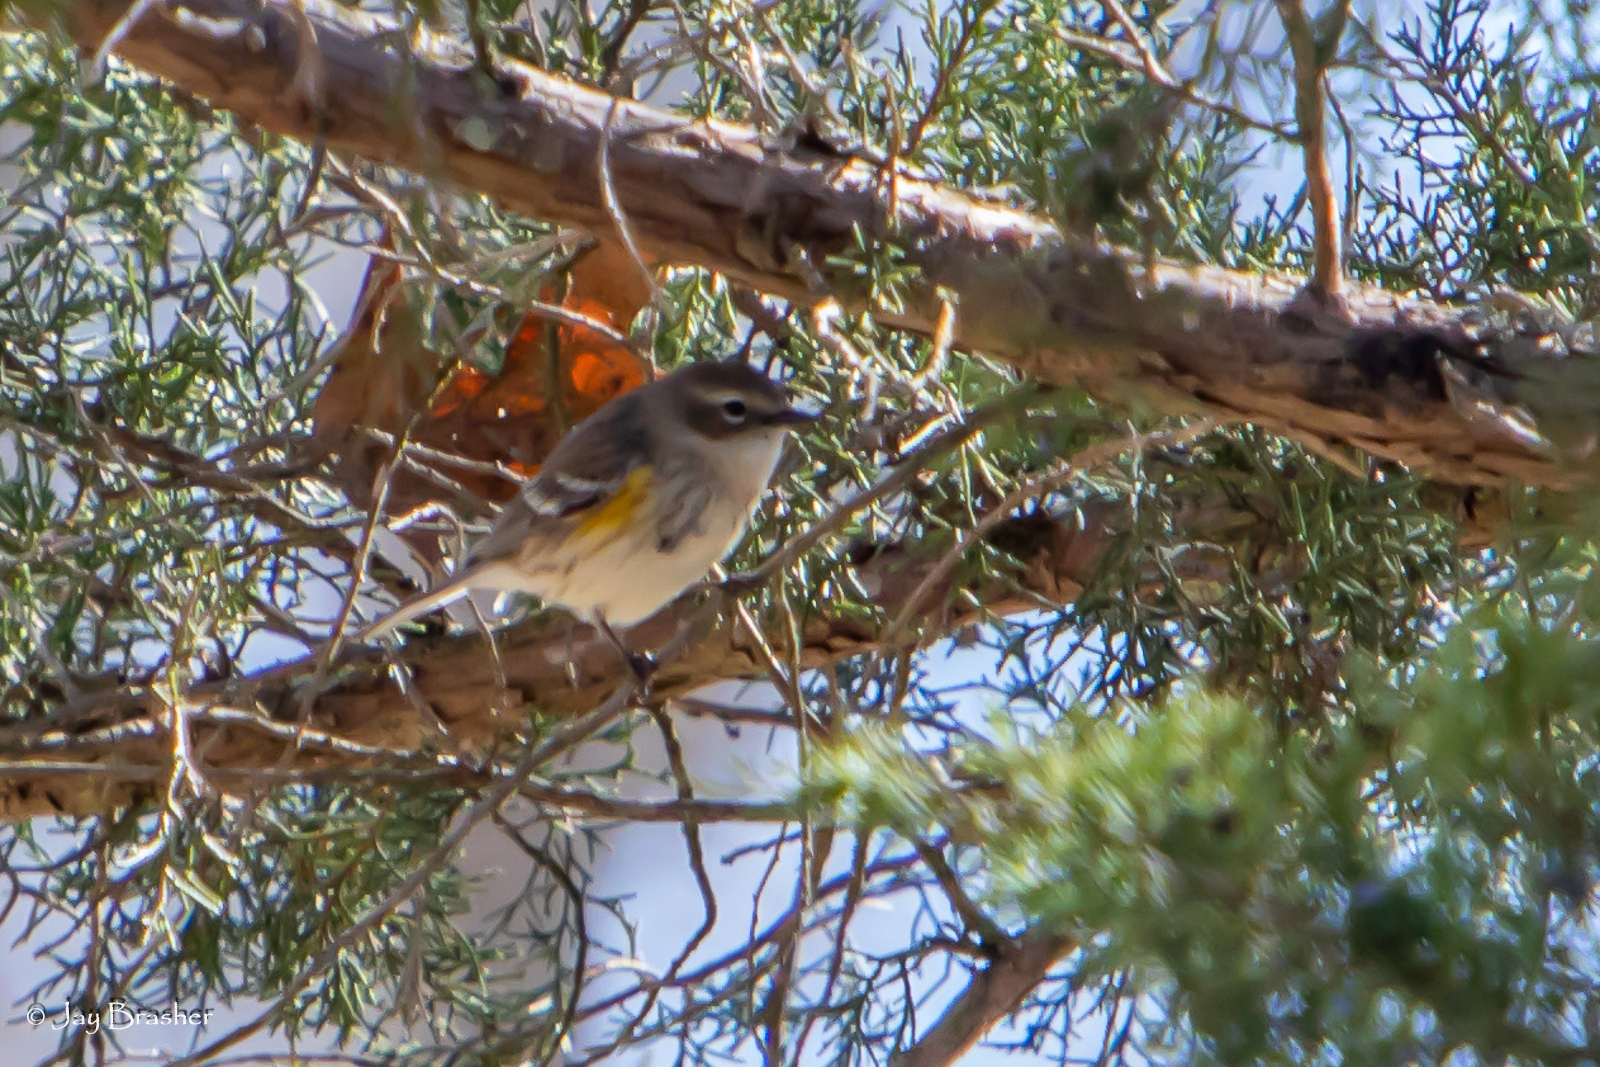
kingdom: Animalia
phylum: Chordata
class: Aves
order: Passeriformes
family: Parulidae
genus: Setophaga
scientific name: Setophaga coronata
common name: Myrtle warbler
